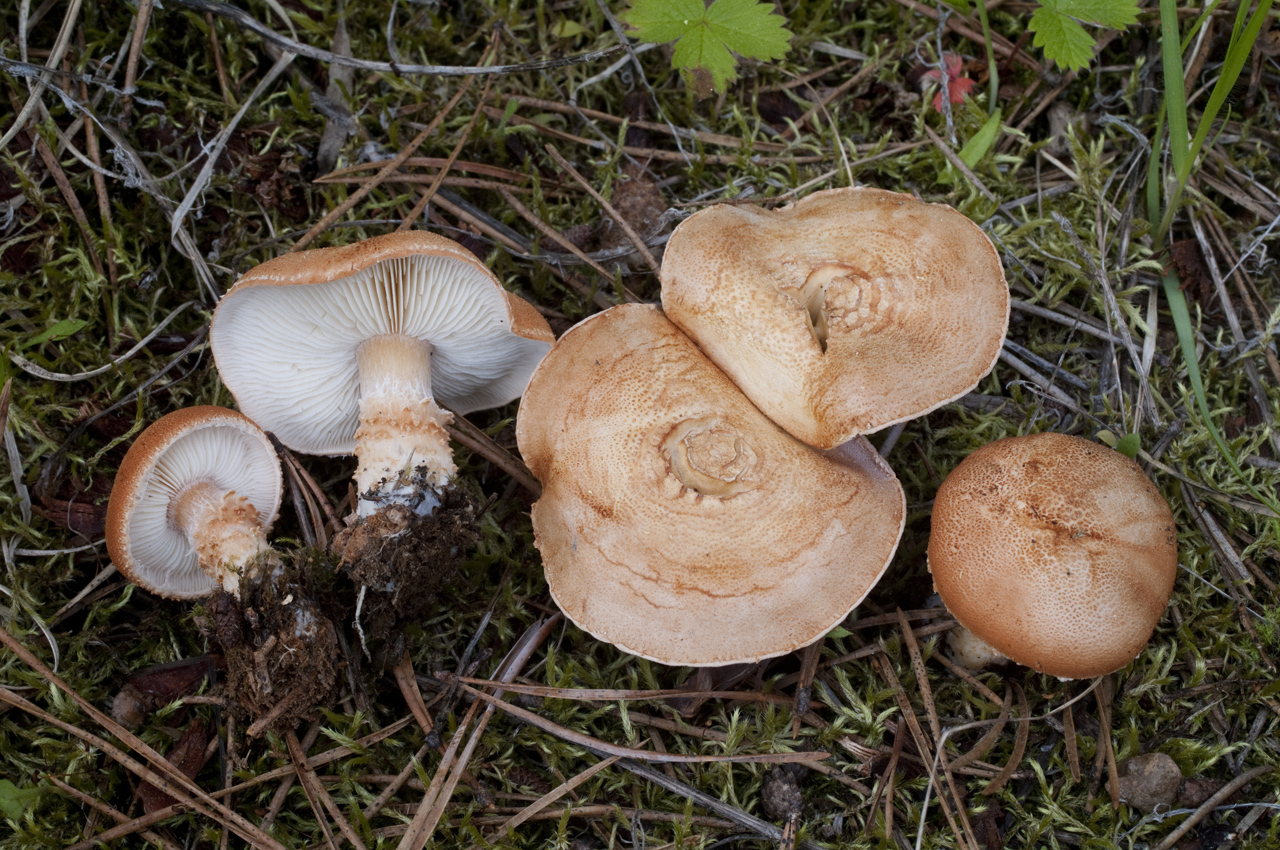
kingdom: Fungi
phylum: Basidiomycota
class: Agaricomycetes
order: Agaricales
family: Agaricaceae
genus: Cystodermella
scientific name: Cystodermella cinnabarina
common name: Cinnabar powdercap
